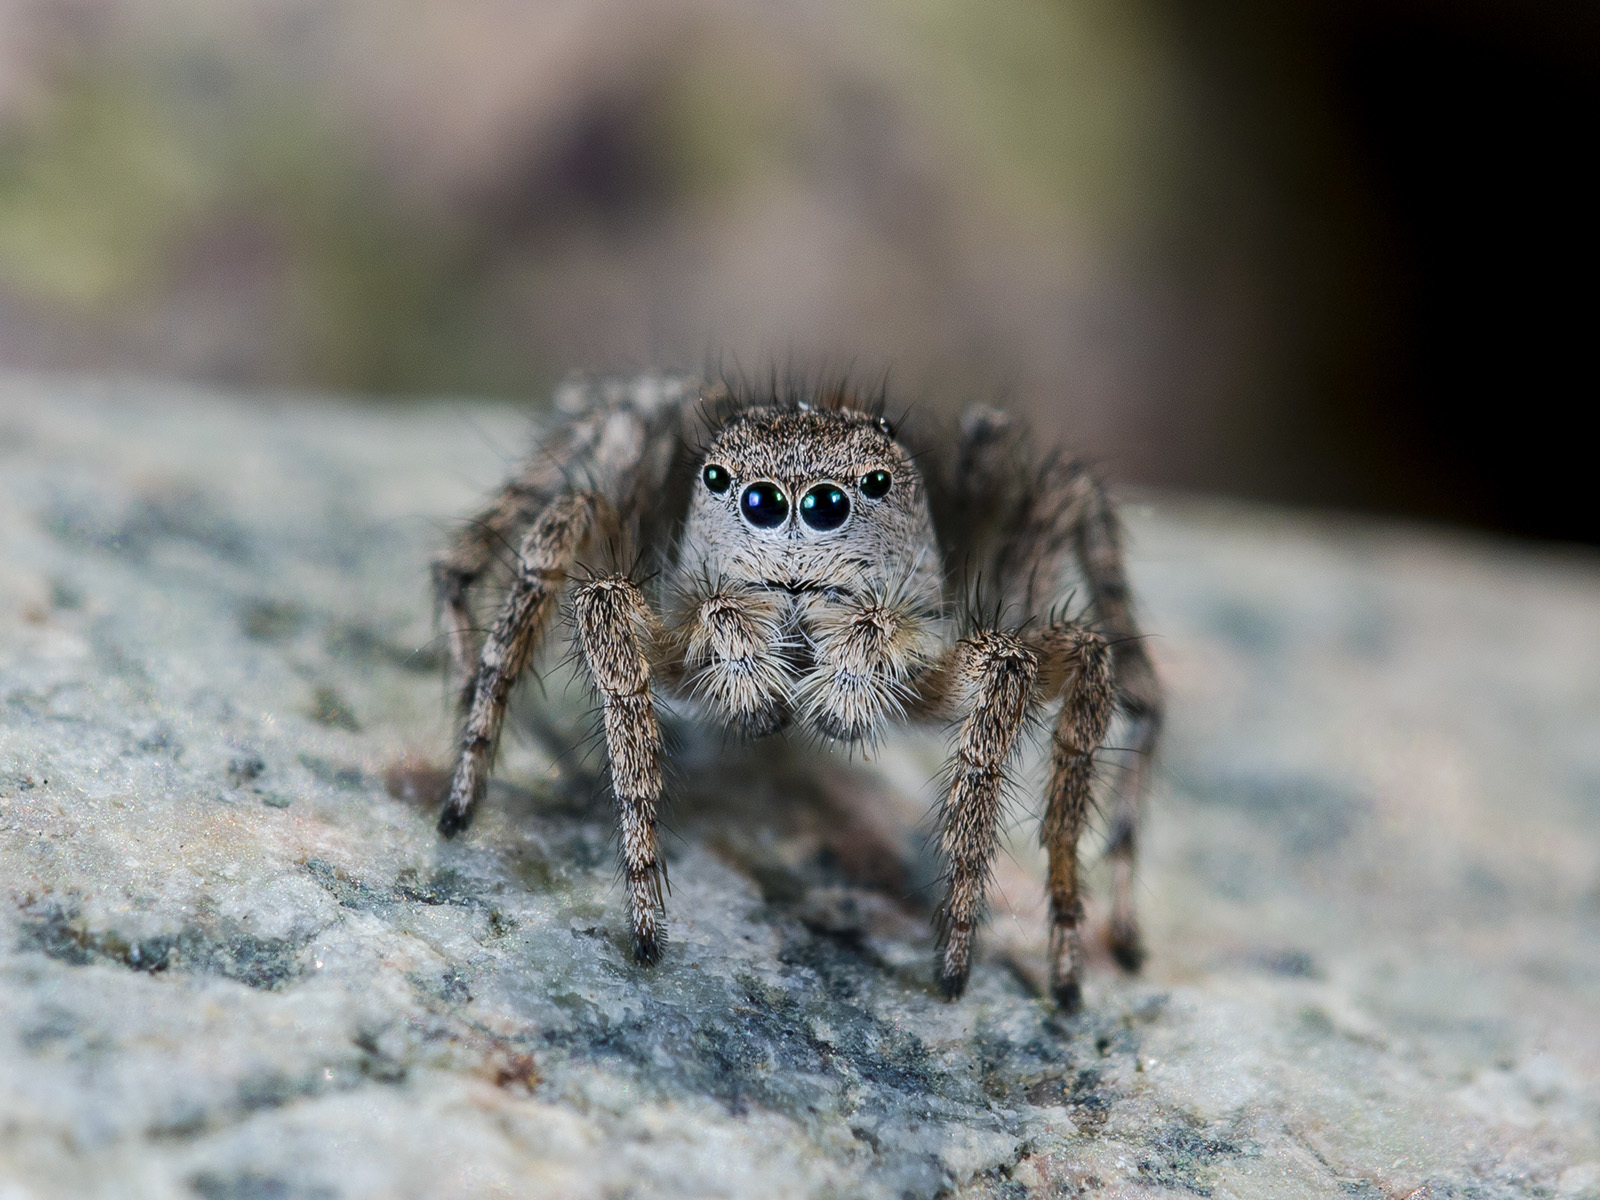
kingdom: Animalia
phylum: Arthropoda
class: Arachnida
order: Araneae
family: Salticidae
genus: Aelurillus
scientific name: Aelurillus dubatolovi
